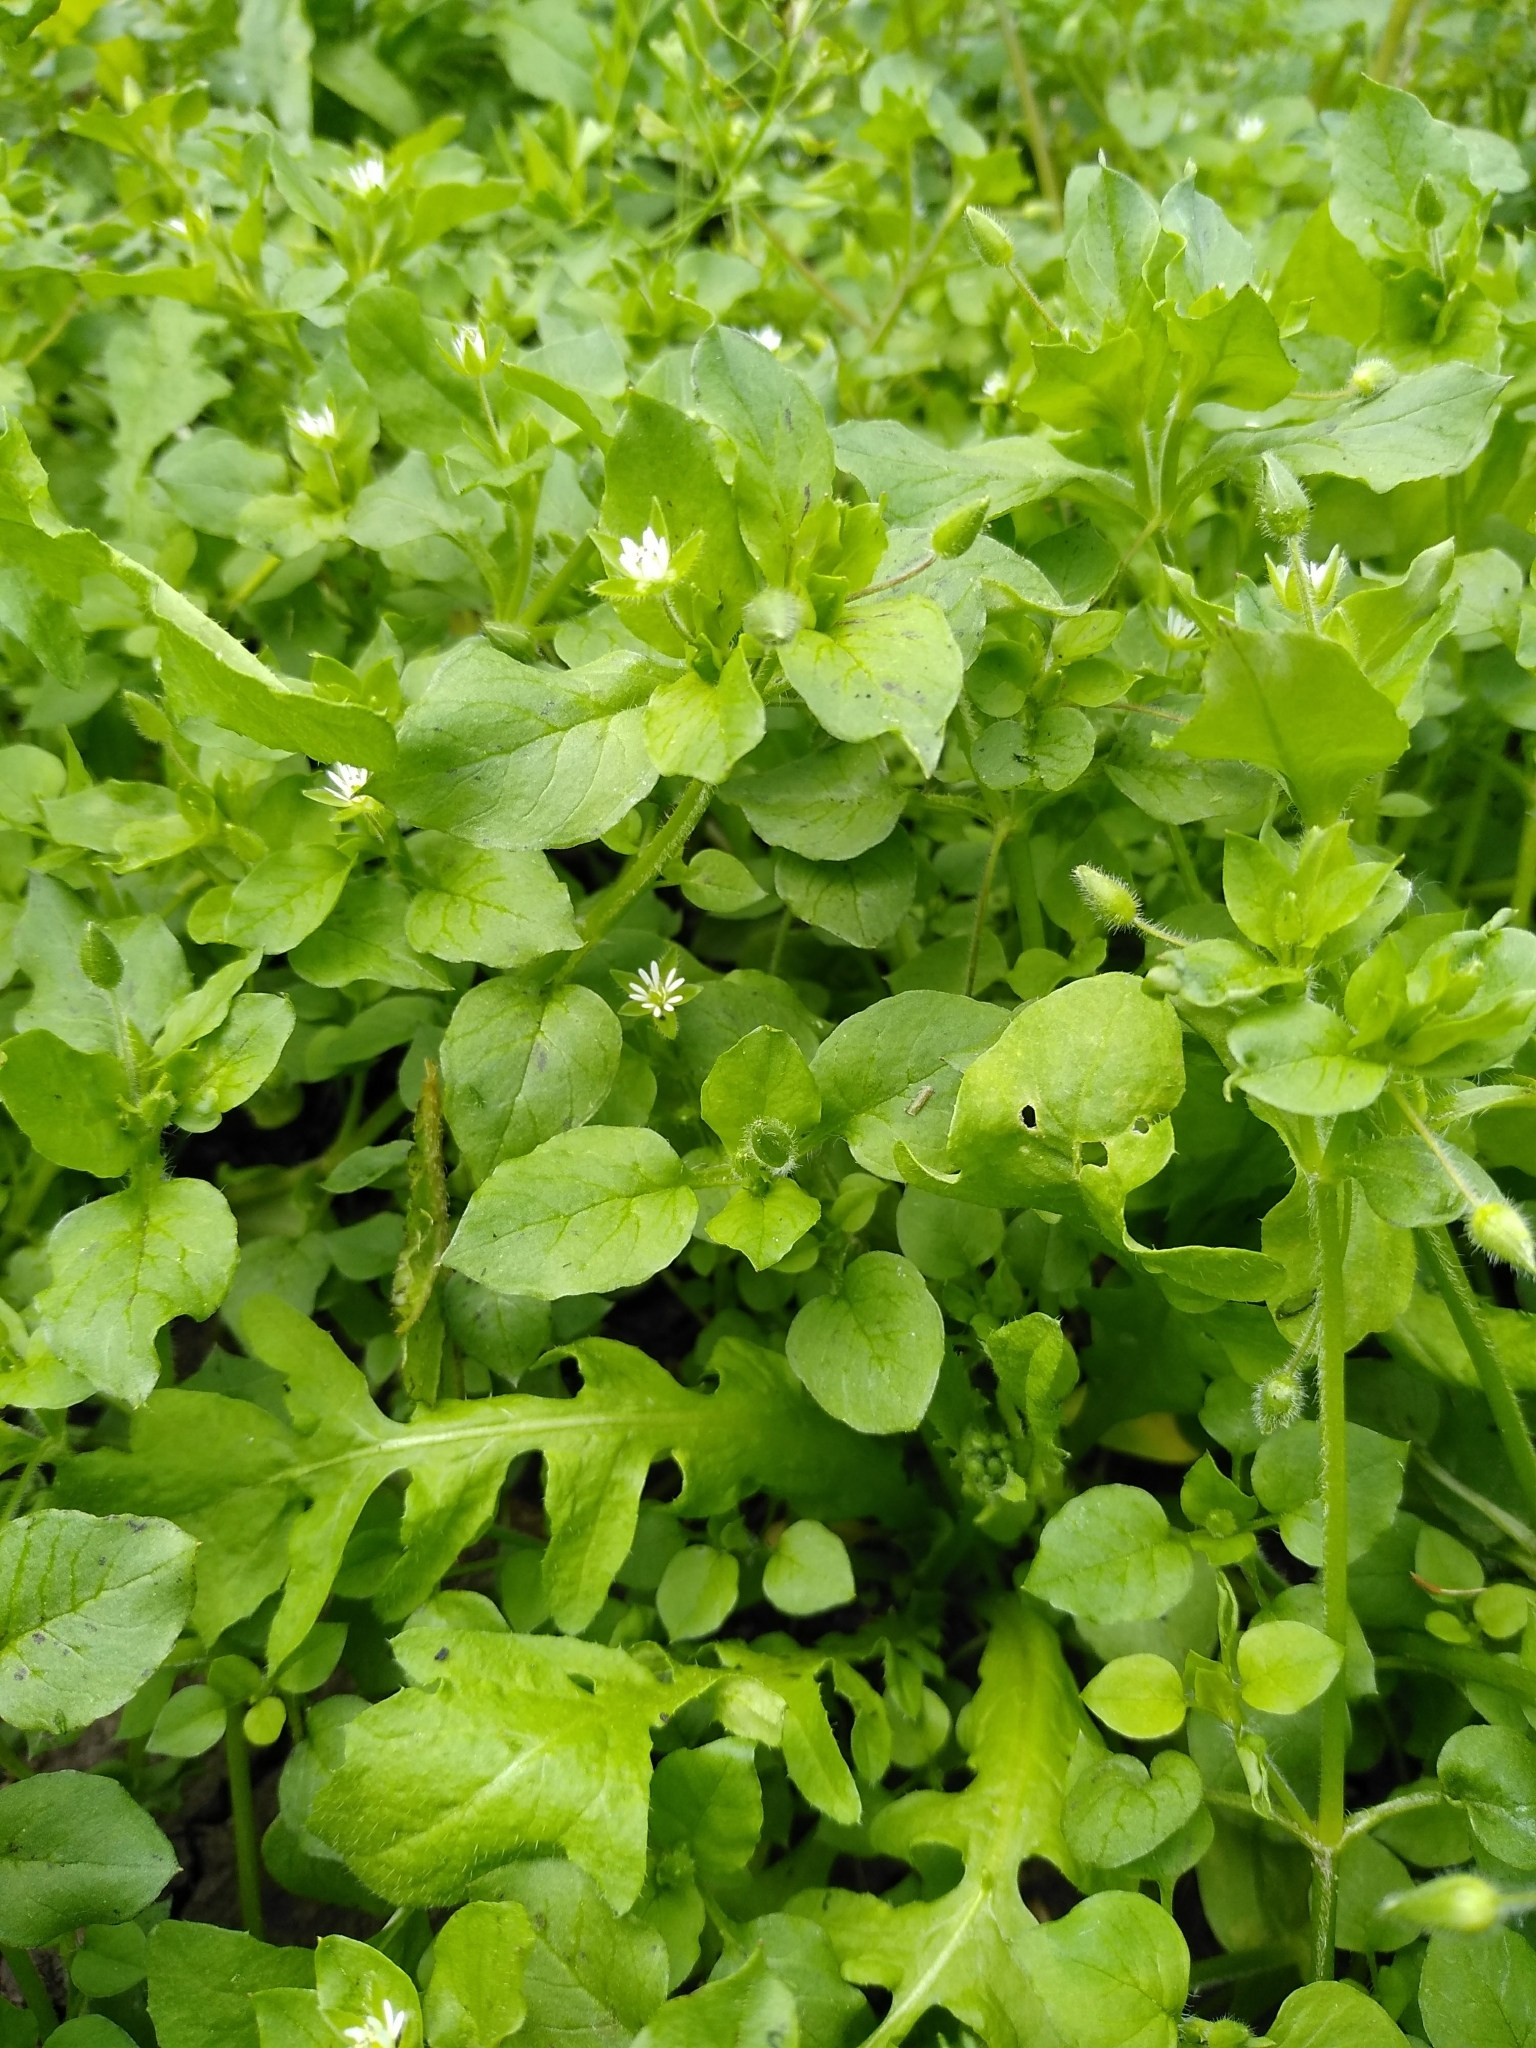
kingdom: Plantae
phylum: Tracheophyta
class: Magnoliopsida
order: Caryophyllales
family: Caryophyllaceae
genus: Stellaria
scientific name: Stellaria media
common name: Common chickweed
